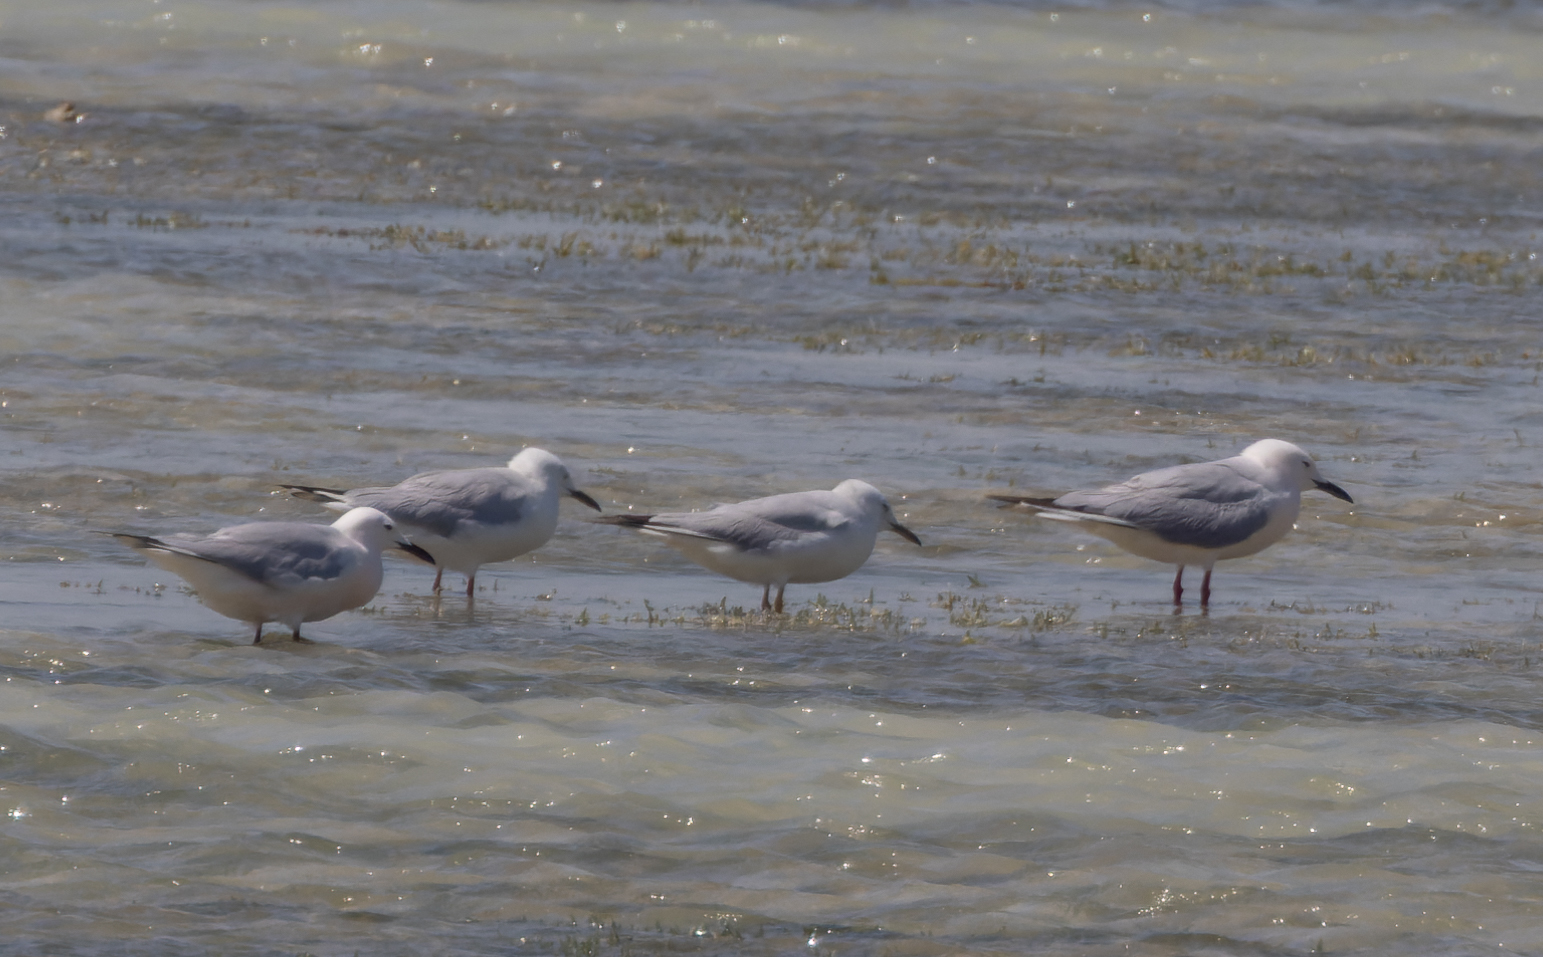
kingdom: Animalia
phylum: Chordata
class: Aves
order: Charadriiformes
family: Laridae
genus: Chroicocephalus
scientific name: Chroicocephalus genei
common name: Slender-billed gull
